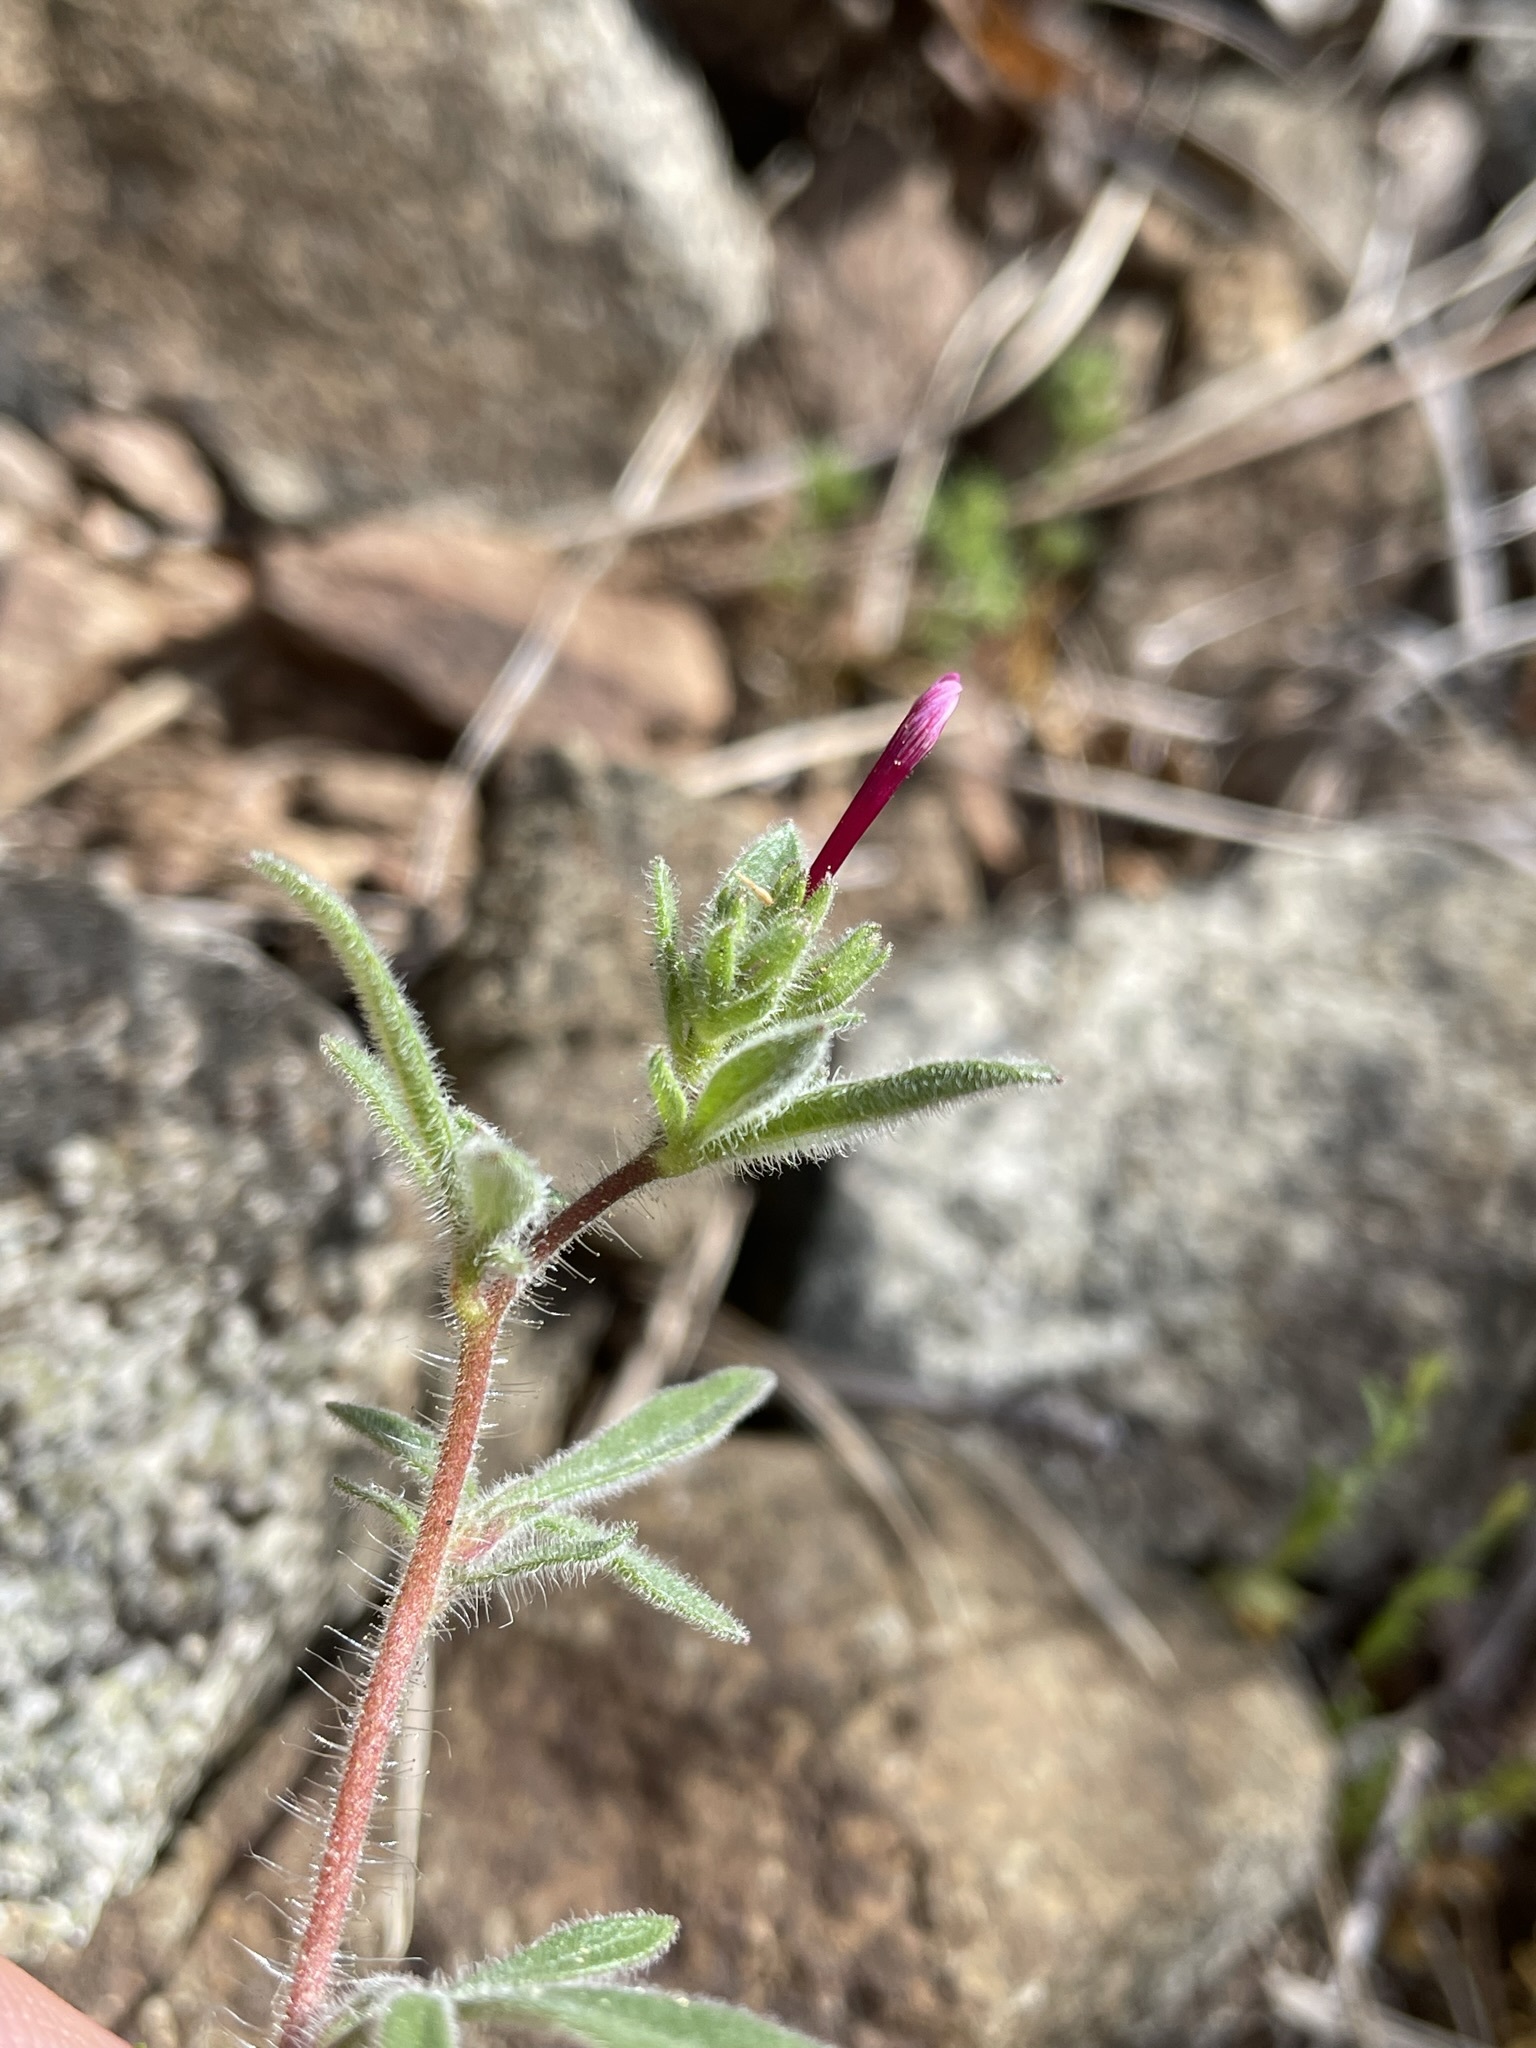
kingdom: Plantae
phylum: Tracheophyta
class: Magnoliopsida
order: Ericales
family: Polemoniaceae
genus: Allophyllum
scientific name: Allophyllum divaricatum
